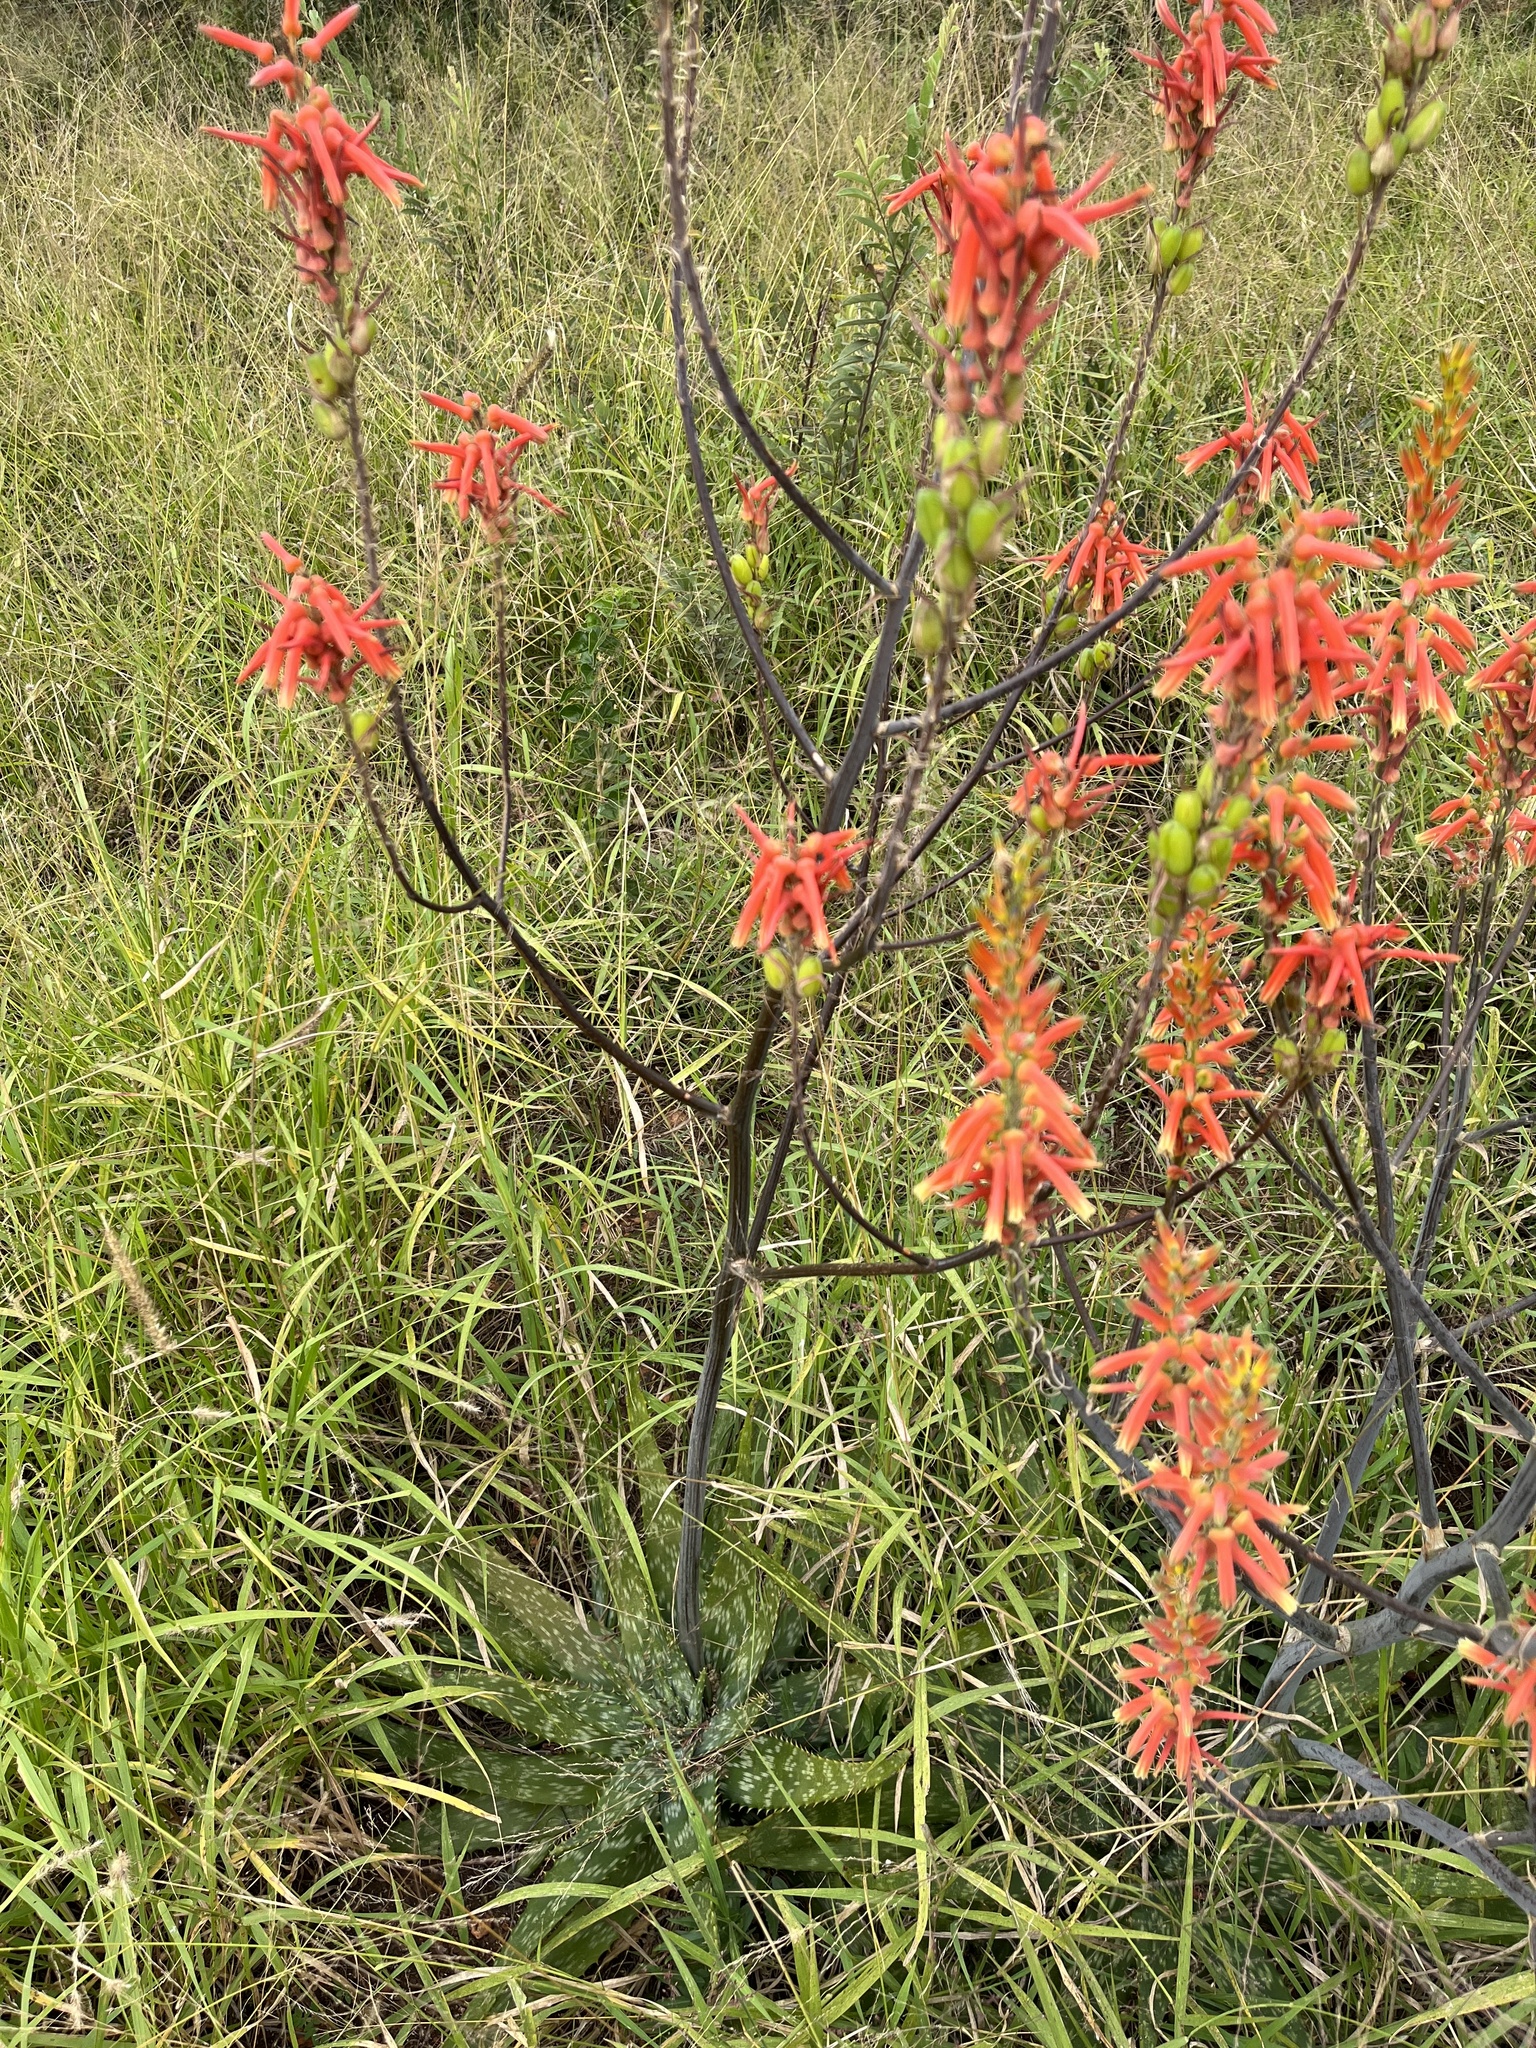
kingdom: Plantae
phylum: Tracheophyta
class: Liliopsida
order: Asparagales
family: Asphodelaceae
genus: Aloe
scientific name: Aloe fosteri
